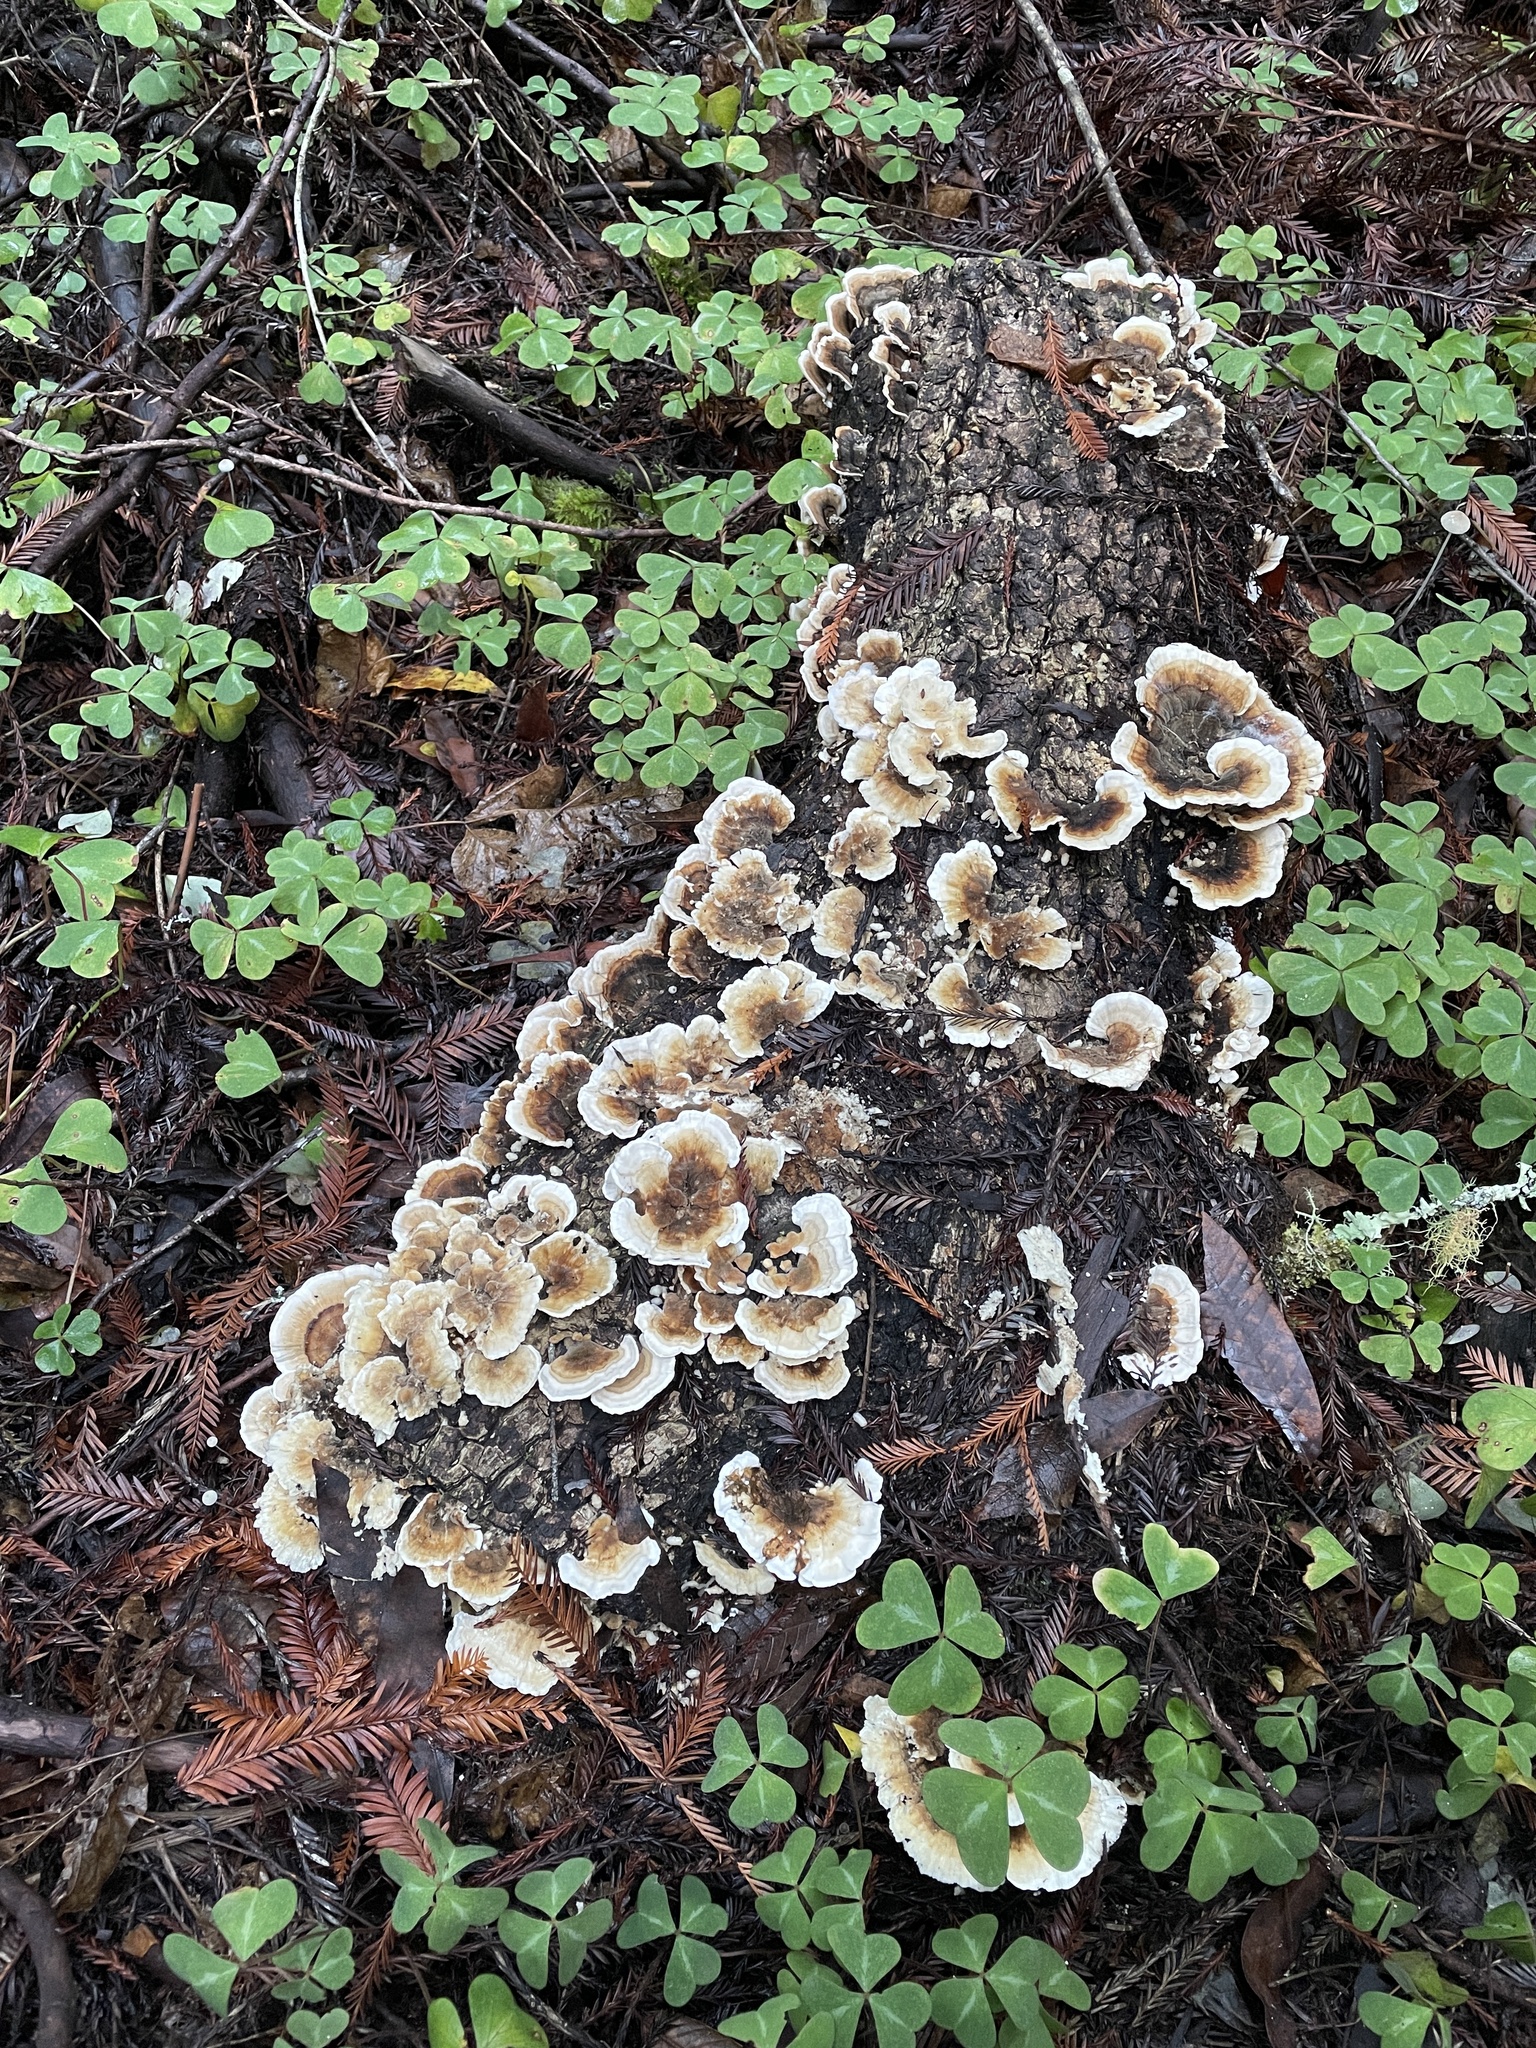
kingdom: Fungi
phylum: Basidiomycota
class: Agaricomycetes
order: Polyporales
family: Polyporaceae
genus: Trametes
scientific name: Trametes versicolor
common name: Turkeytail
